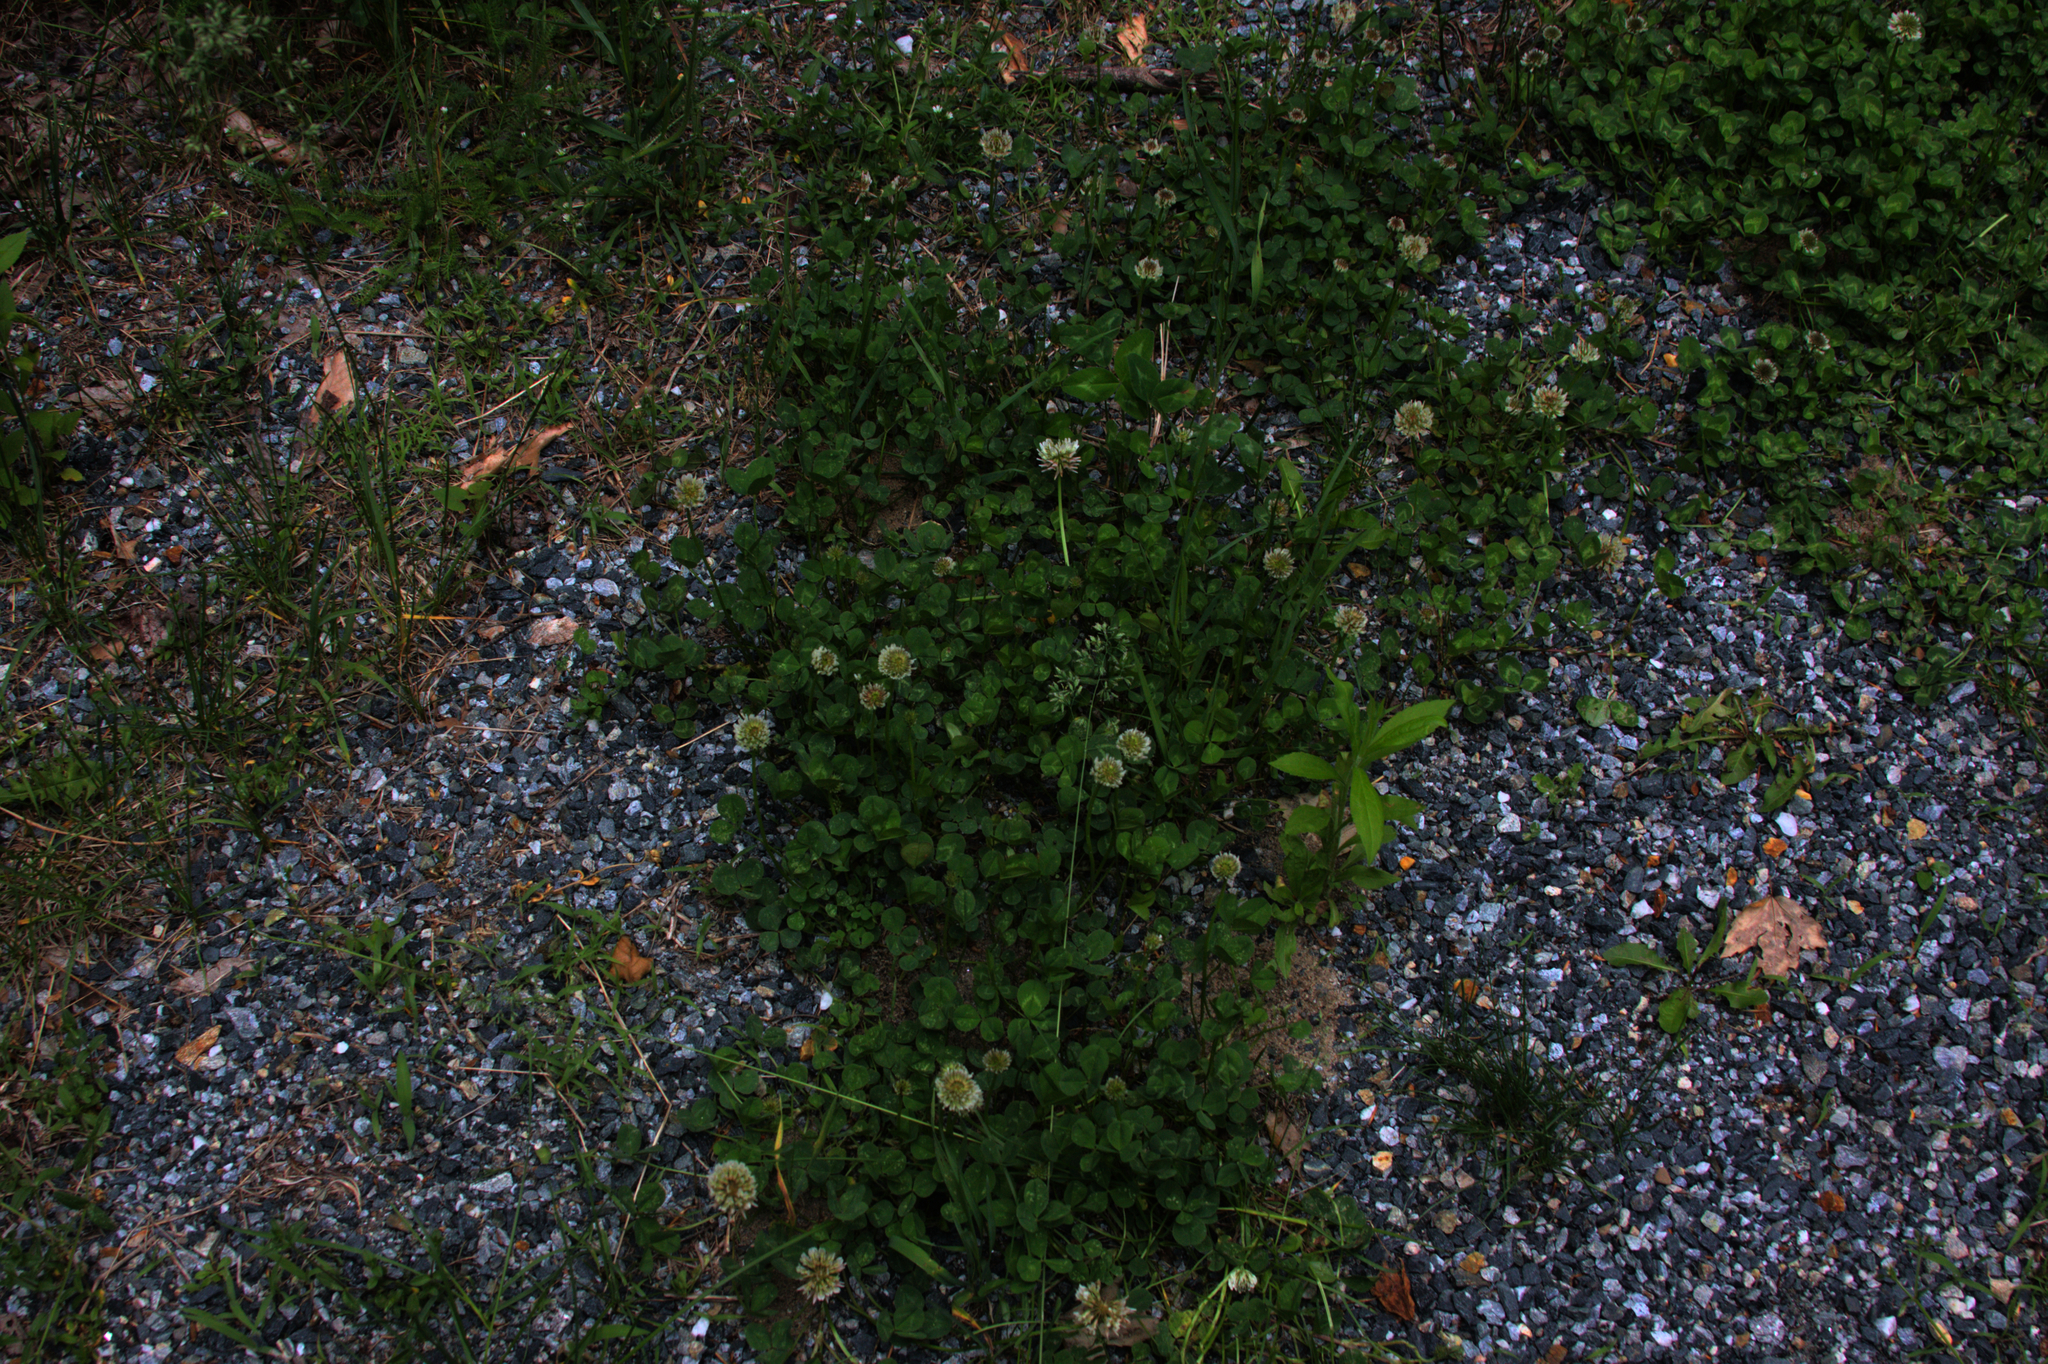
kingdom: Plantae
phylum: Tracheophyta
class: Magnoliopsida
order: Fabales
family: Fabaceae
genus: Trifolium
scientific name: Trifolium repens
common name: White clover
